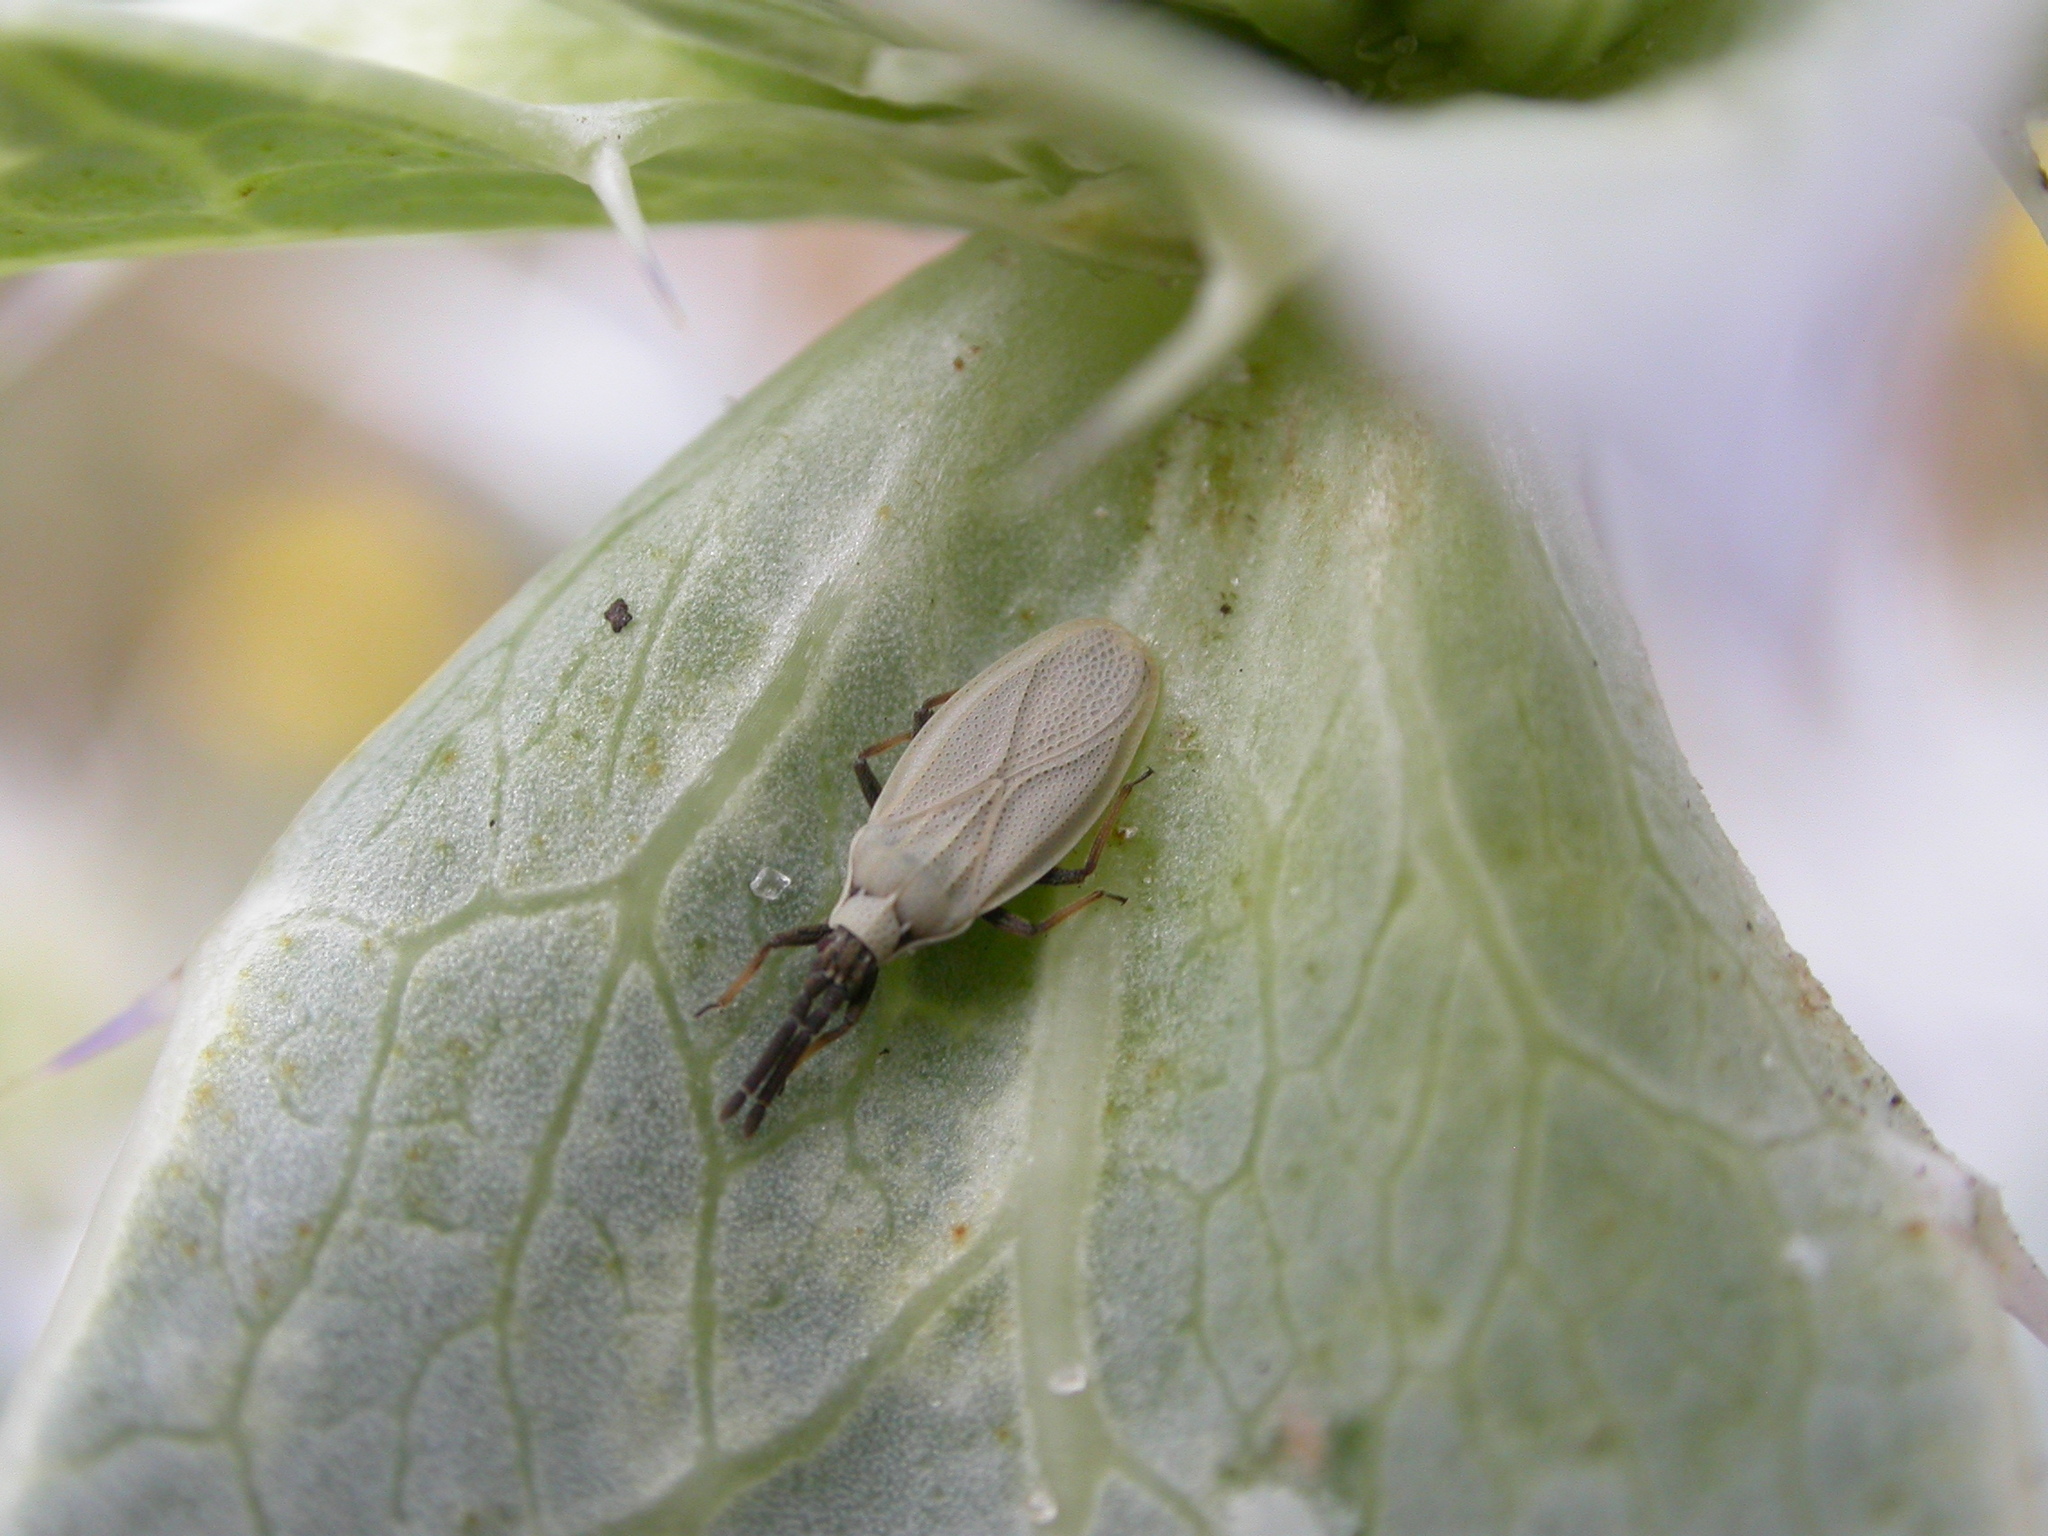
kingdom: Animalia
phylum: Arthropoda
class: Insecta
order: Hemiptera
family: Tingidae
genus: Catoplatus
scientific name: Catoplatus carthusianus
